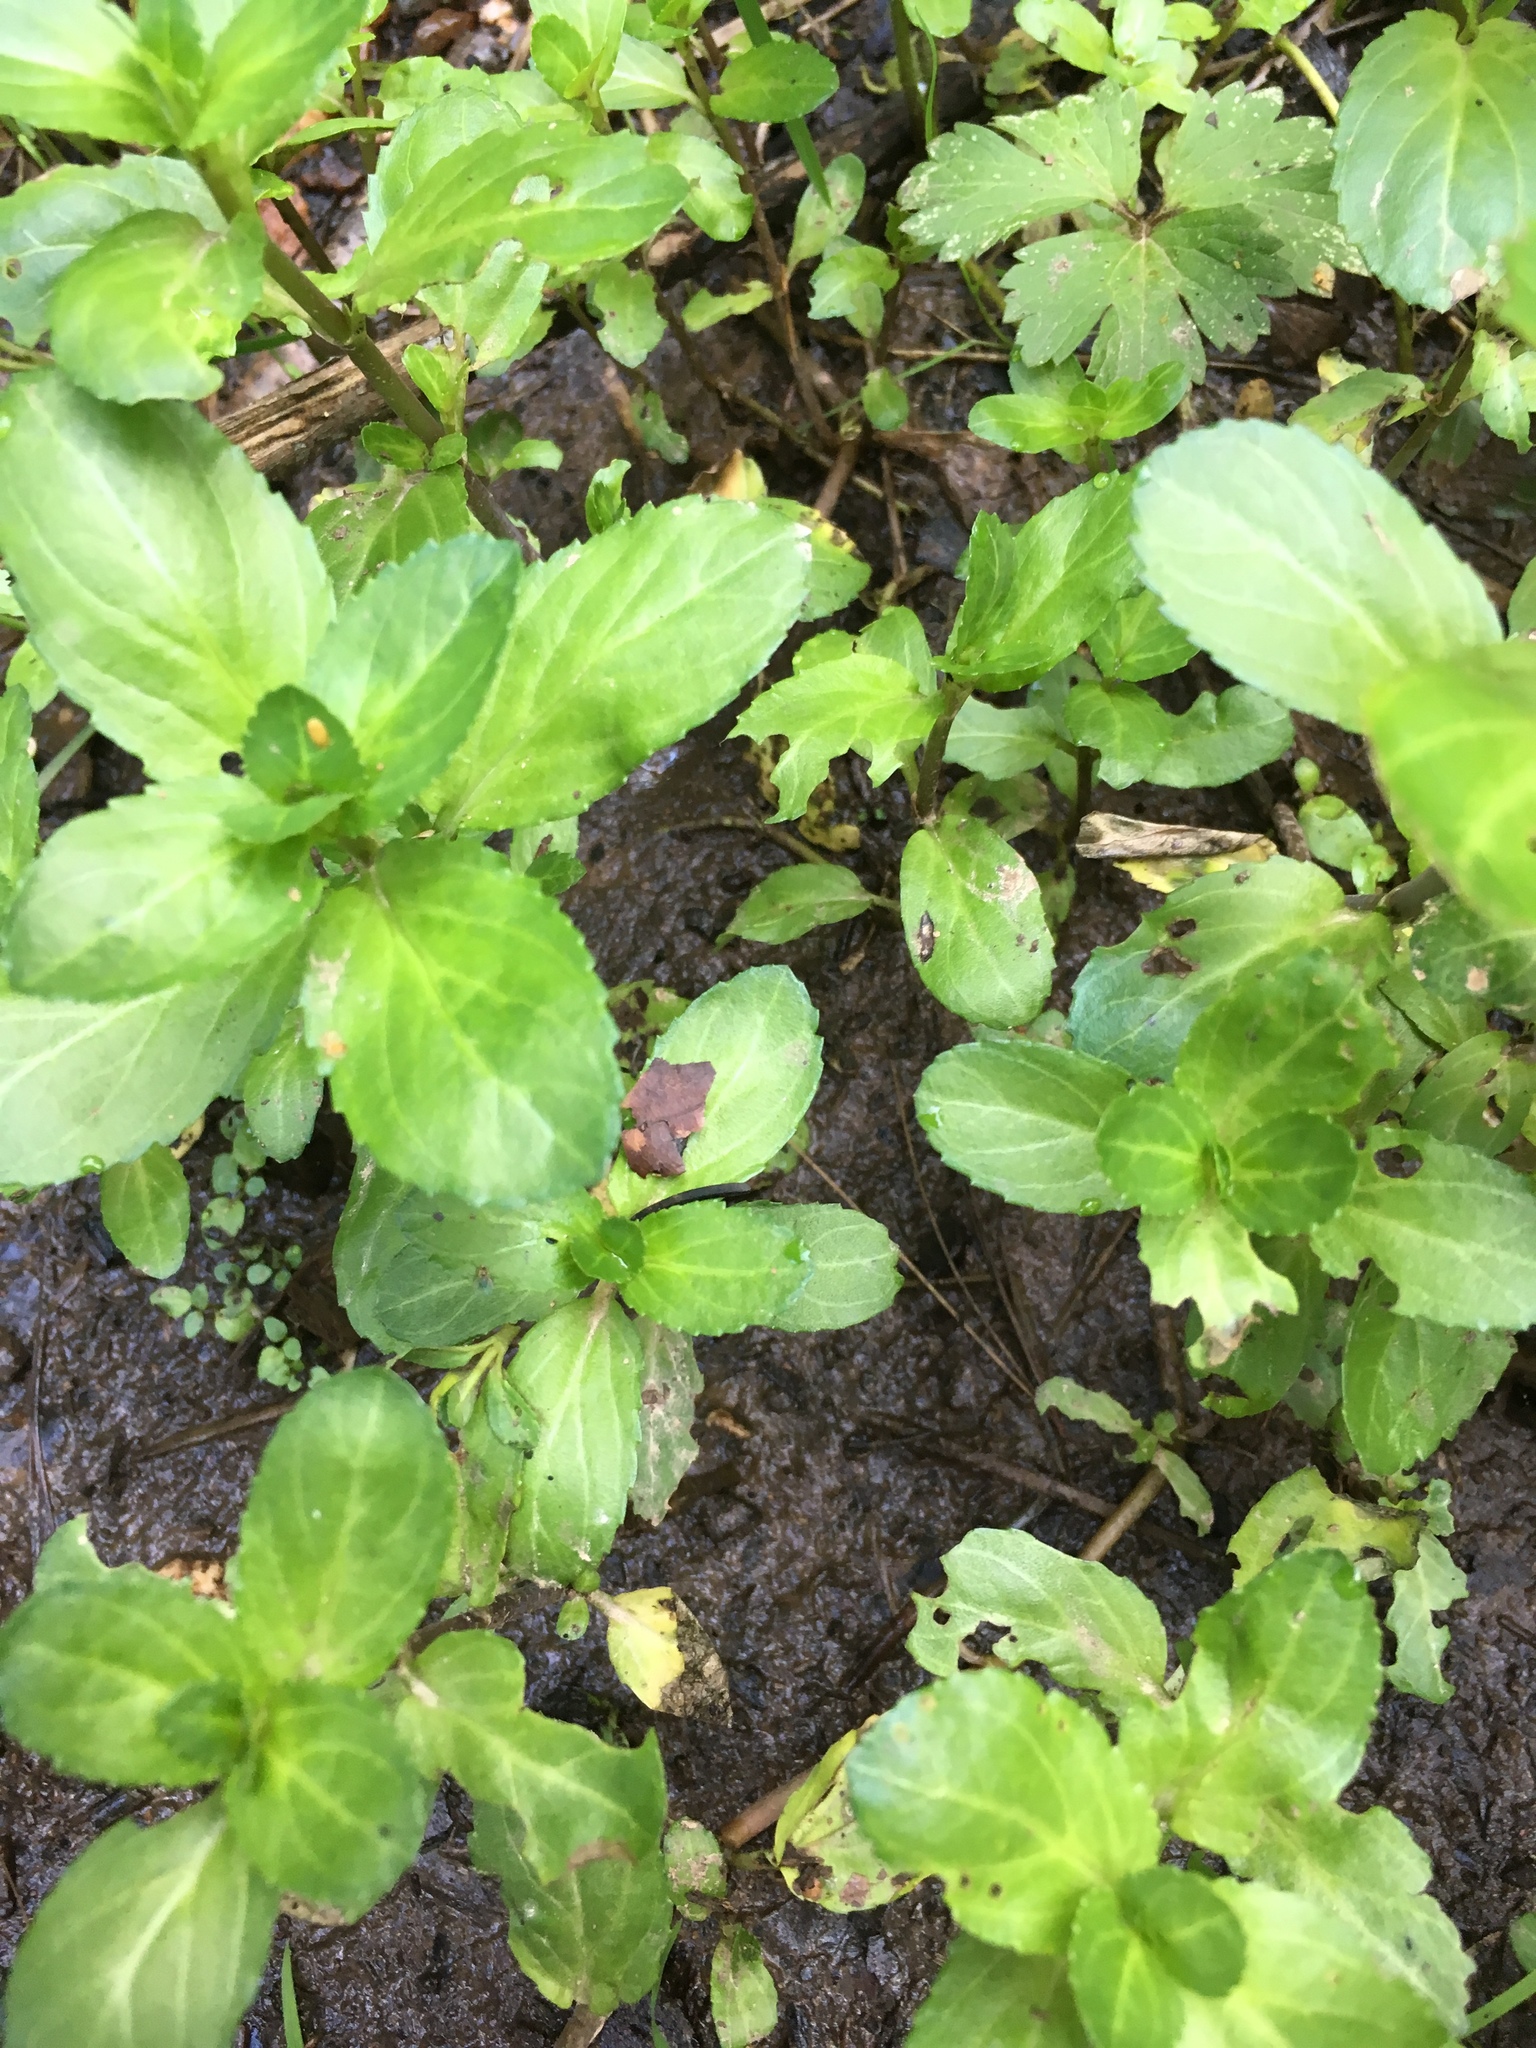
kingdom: Plantae
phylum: Tracheophyta
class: Magnoliopsida
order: Lamiales
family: Plantaginaceae
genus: Veronica
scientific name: Veronica beccabunga
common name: Brooklime
